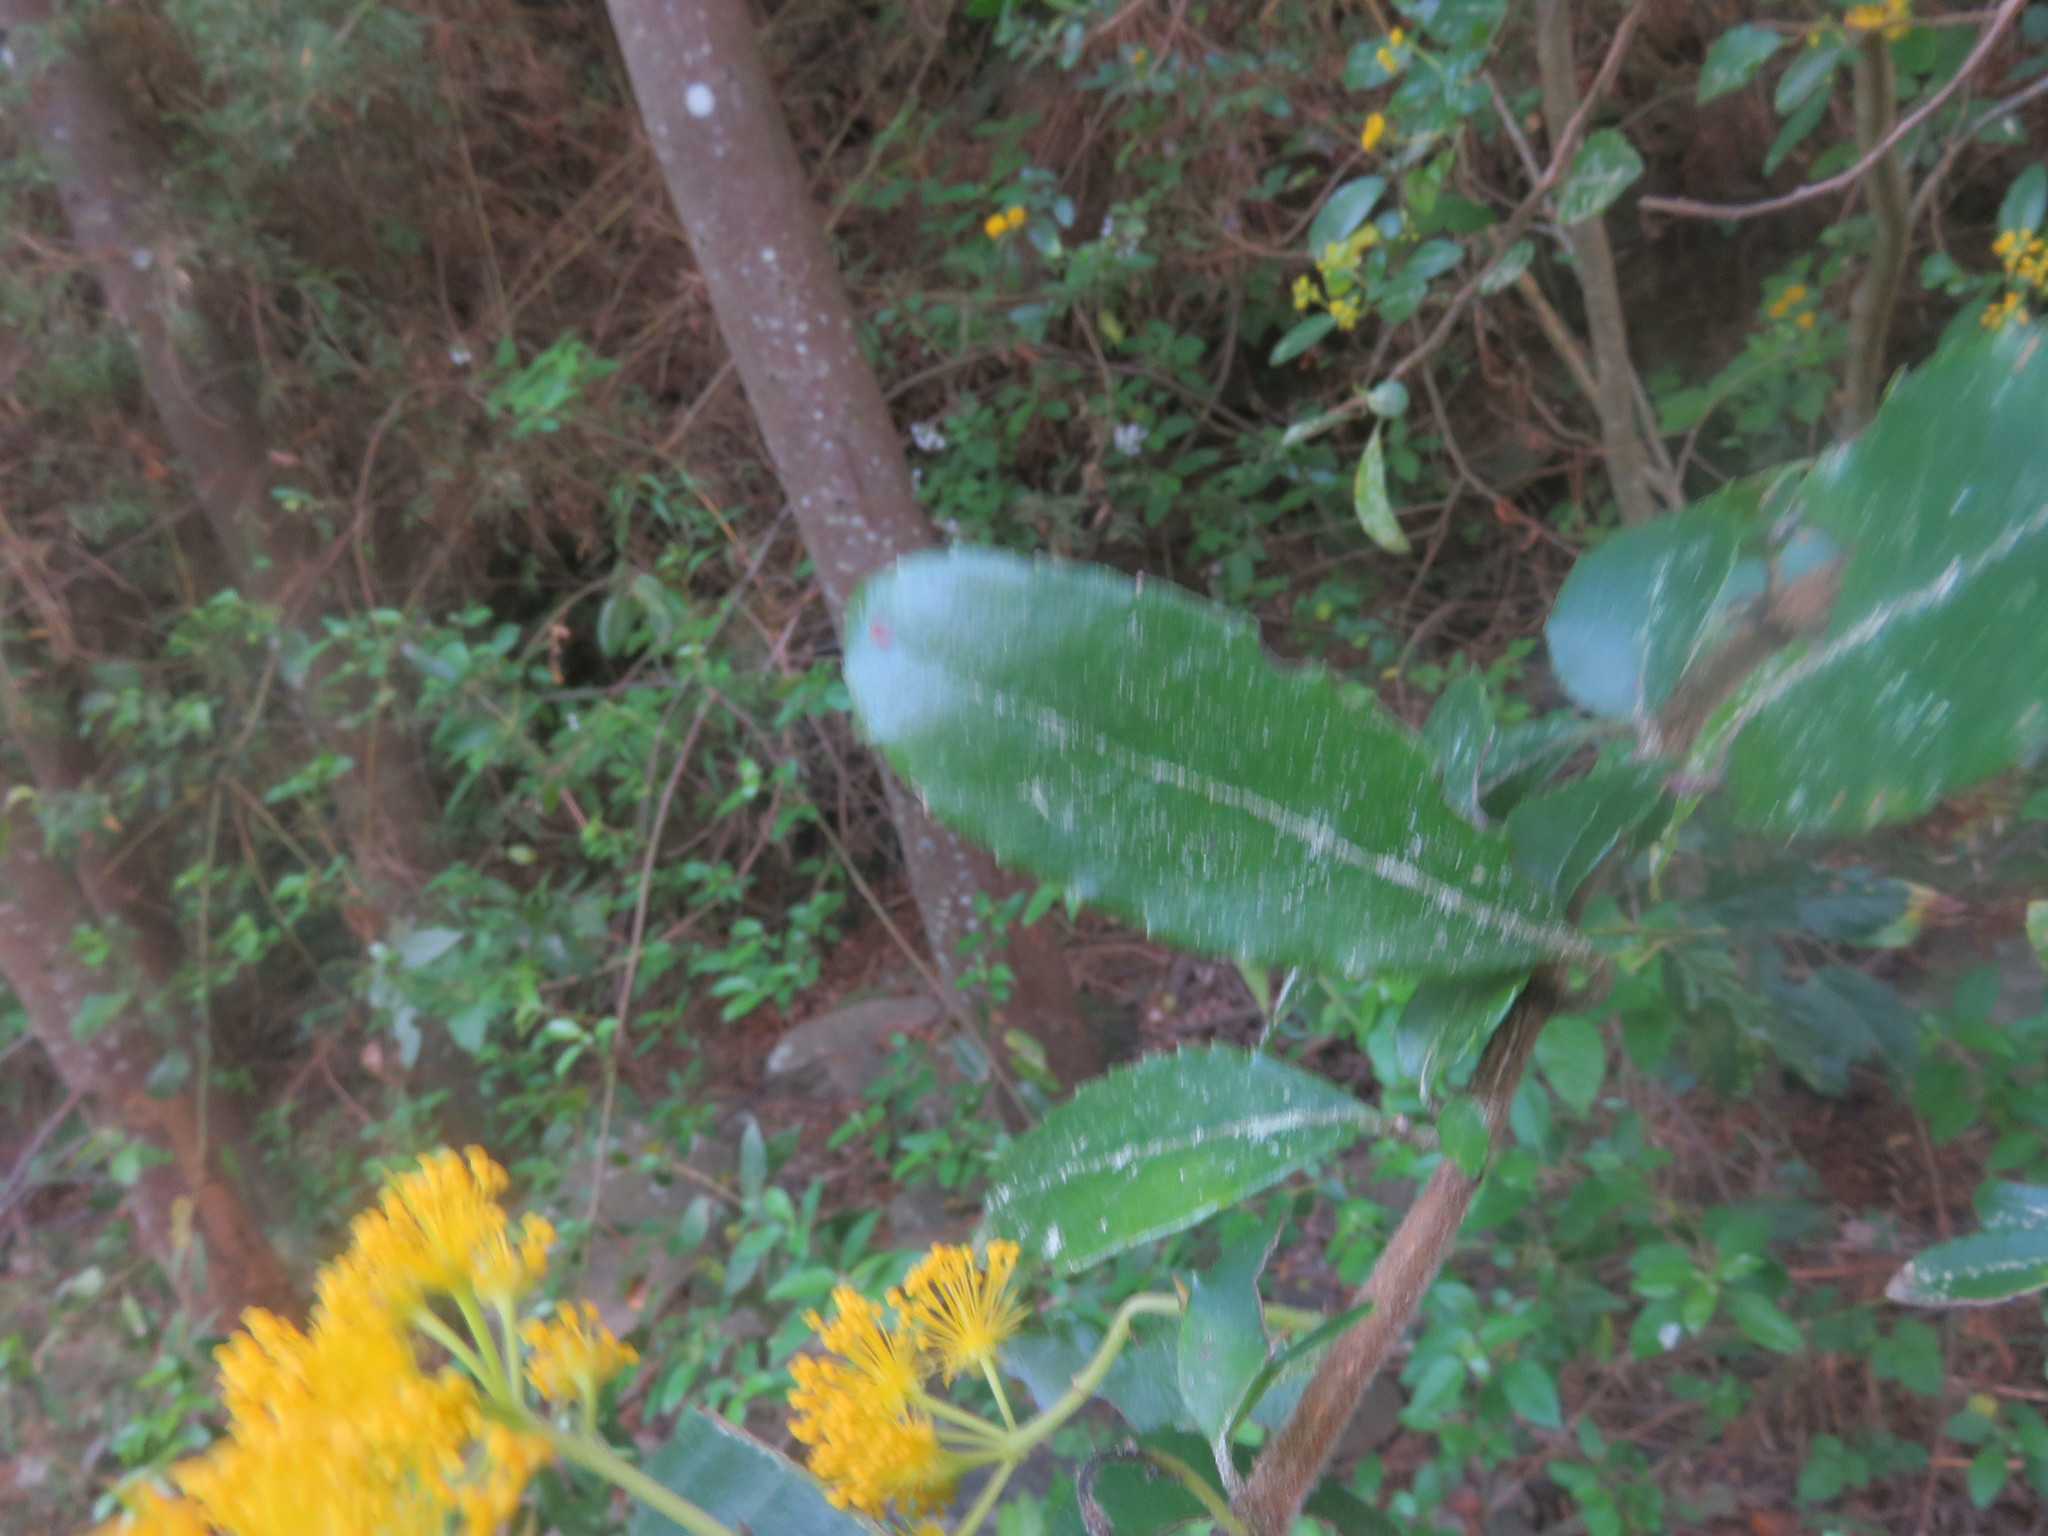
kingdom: Plantae
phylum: Tracheophyta
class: Magnoliopsida
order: Malpighiales
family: Salicaceae
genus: Azara
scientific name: Azara serrata
